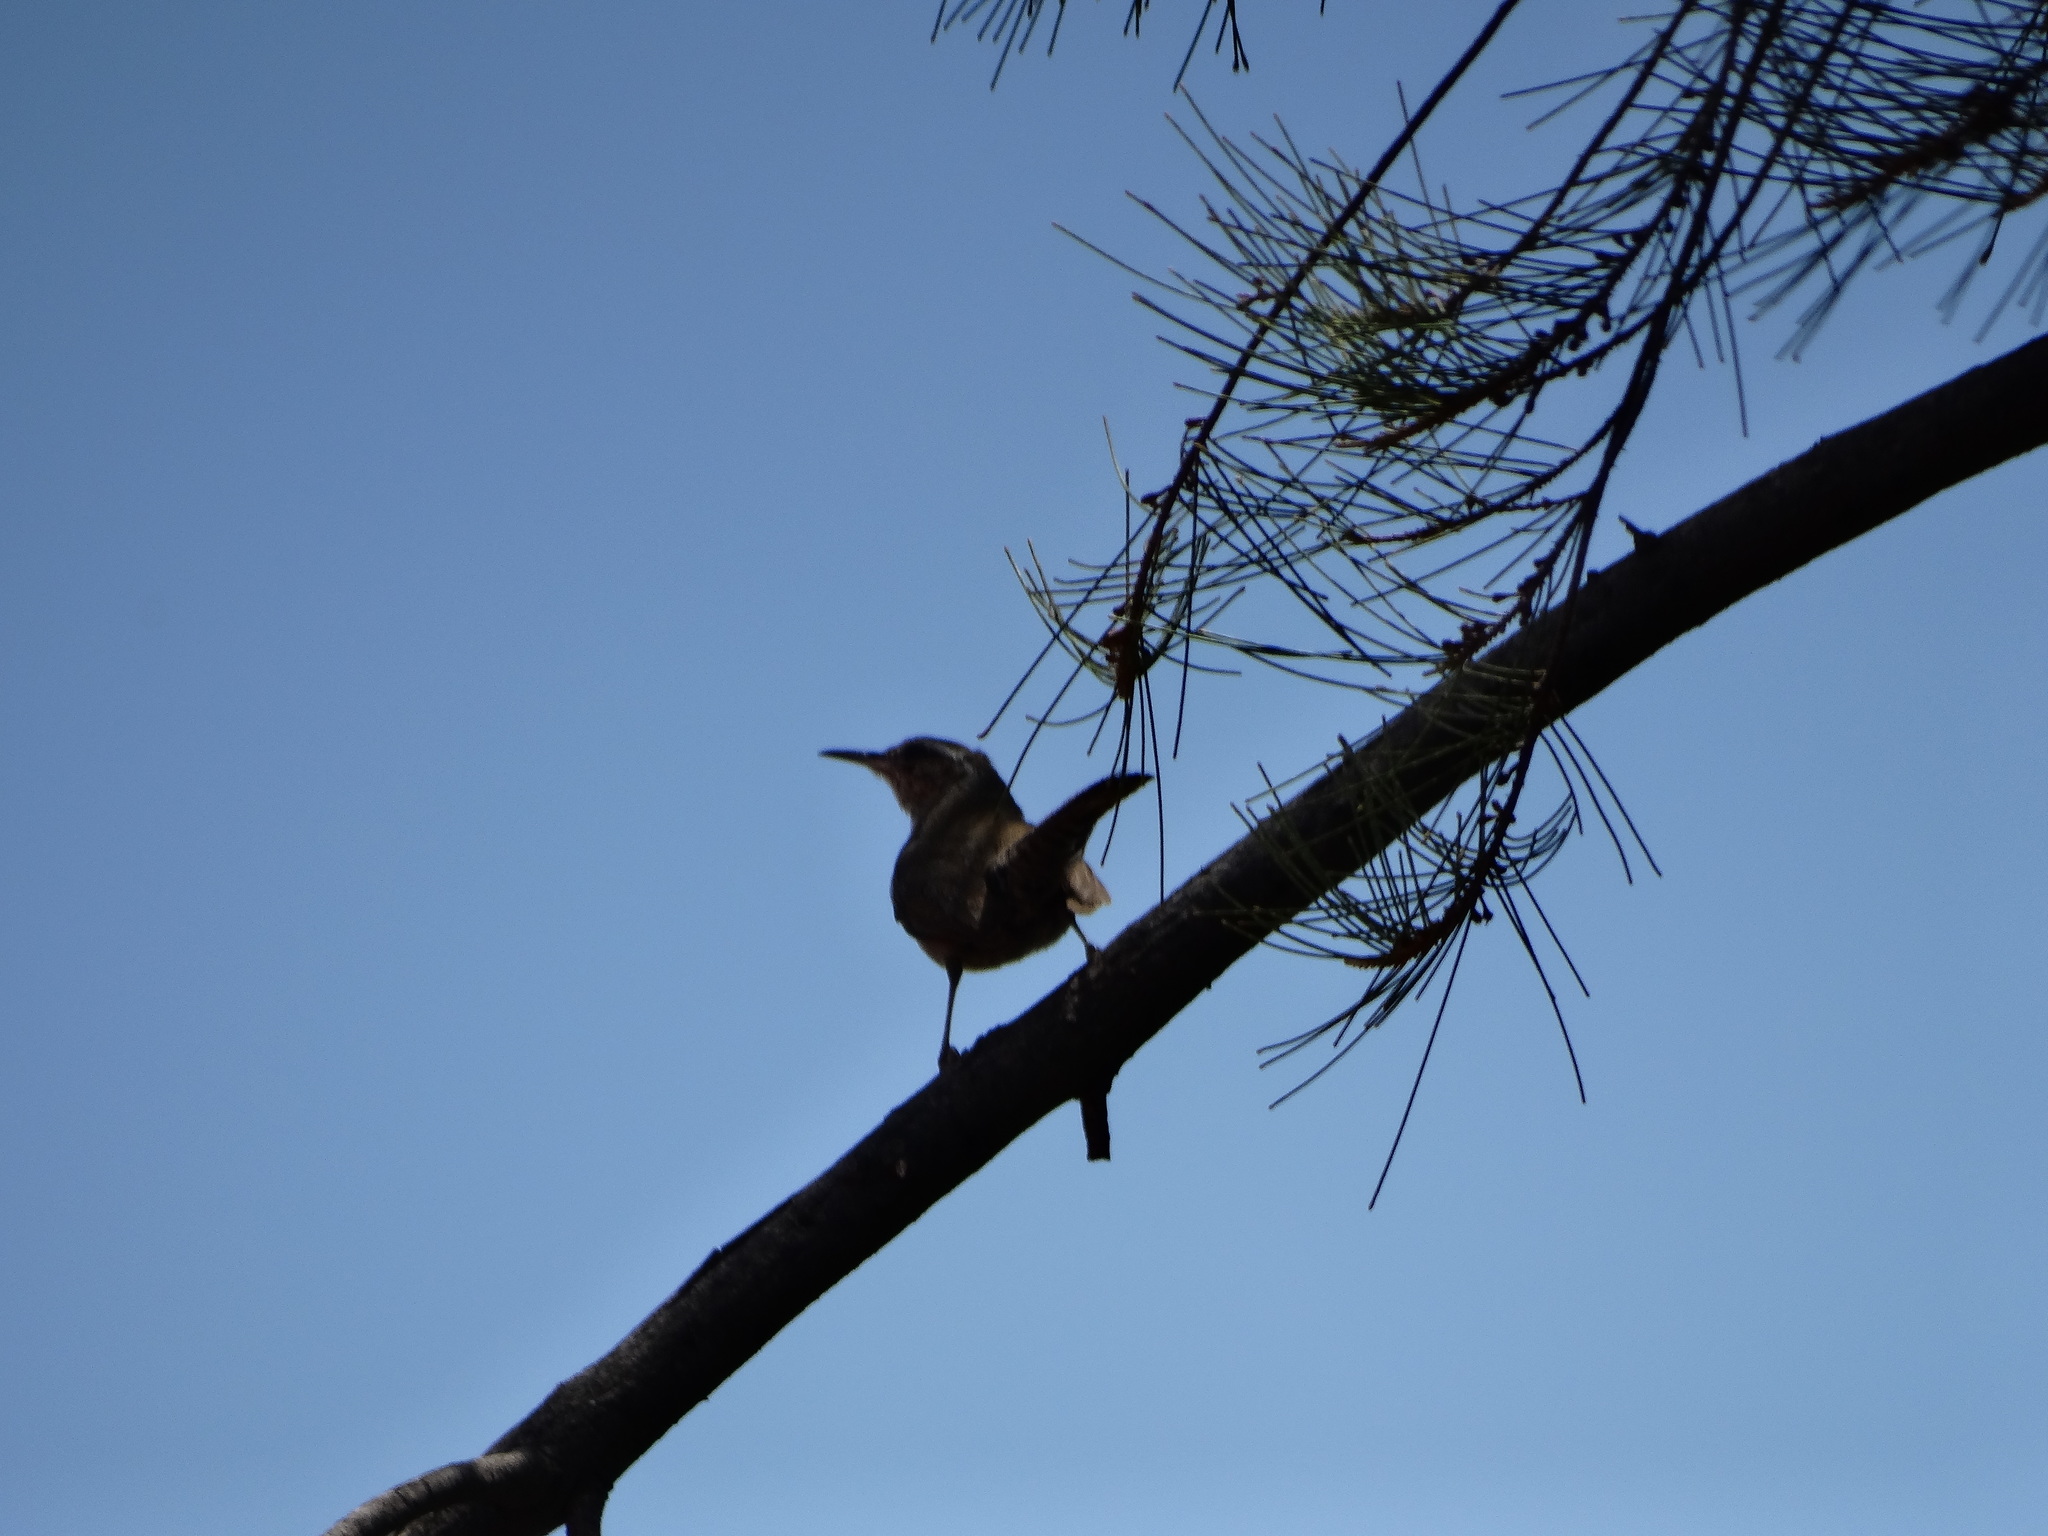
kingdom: Animalia
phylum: Chordata
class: Aves
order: Passeriformes
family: Troglodytidae
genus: Thryomanes
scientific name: Thryomanes bewickii
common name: Bewick's wren
